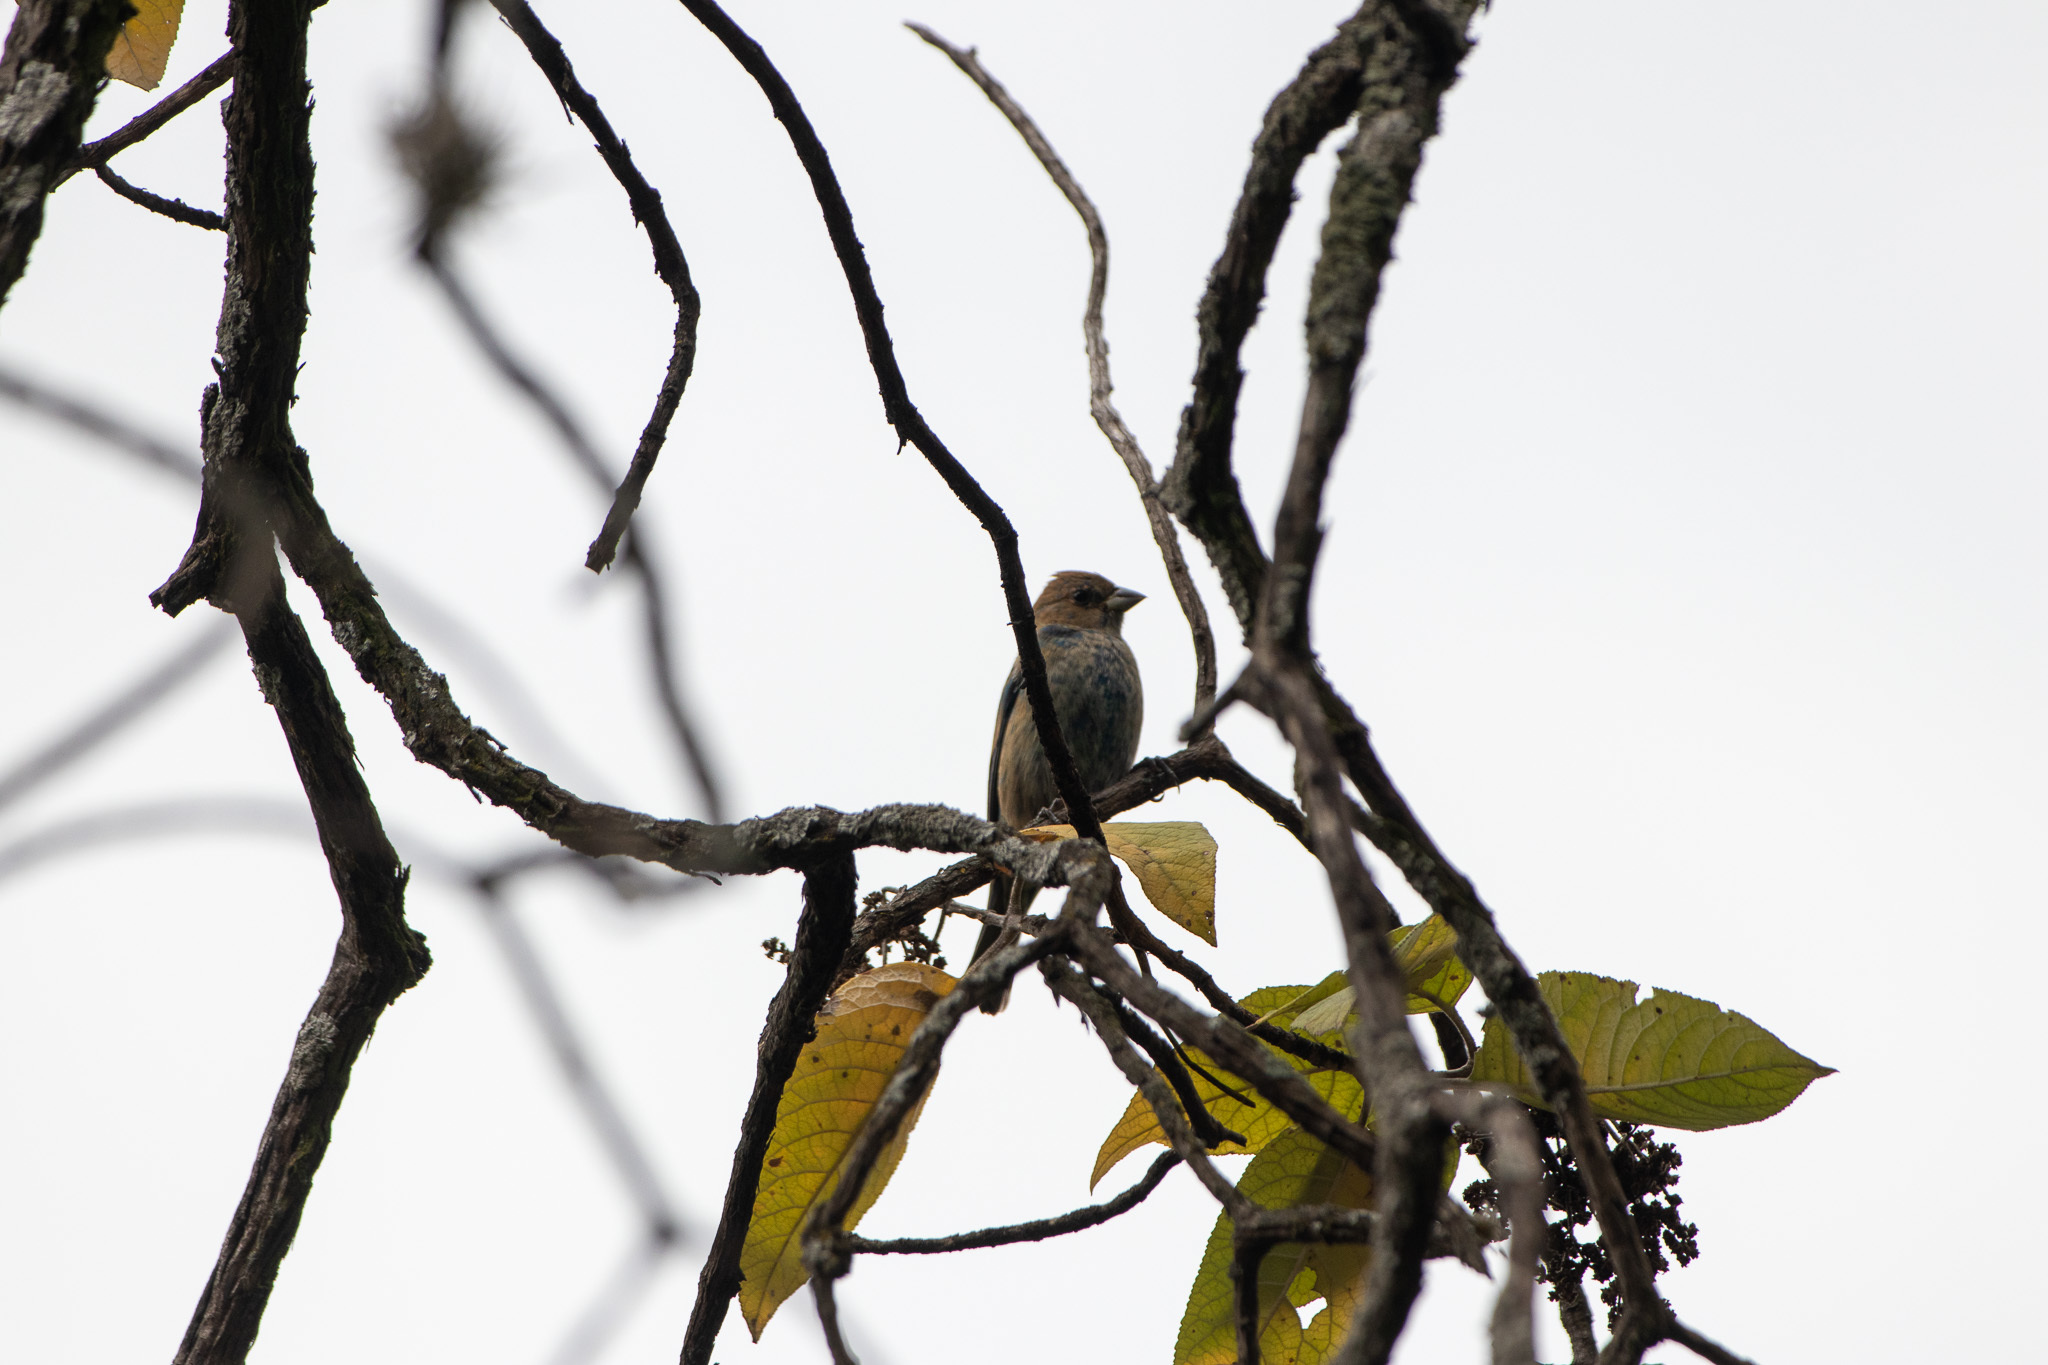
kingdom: Animalia
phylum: Chordata
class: Aves
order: Passeriformes
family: Cardinalidae
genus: Passerina
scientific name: Passerina cyanea
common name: Indigo bunting
